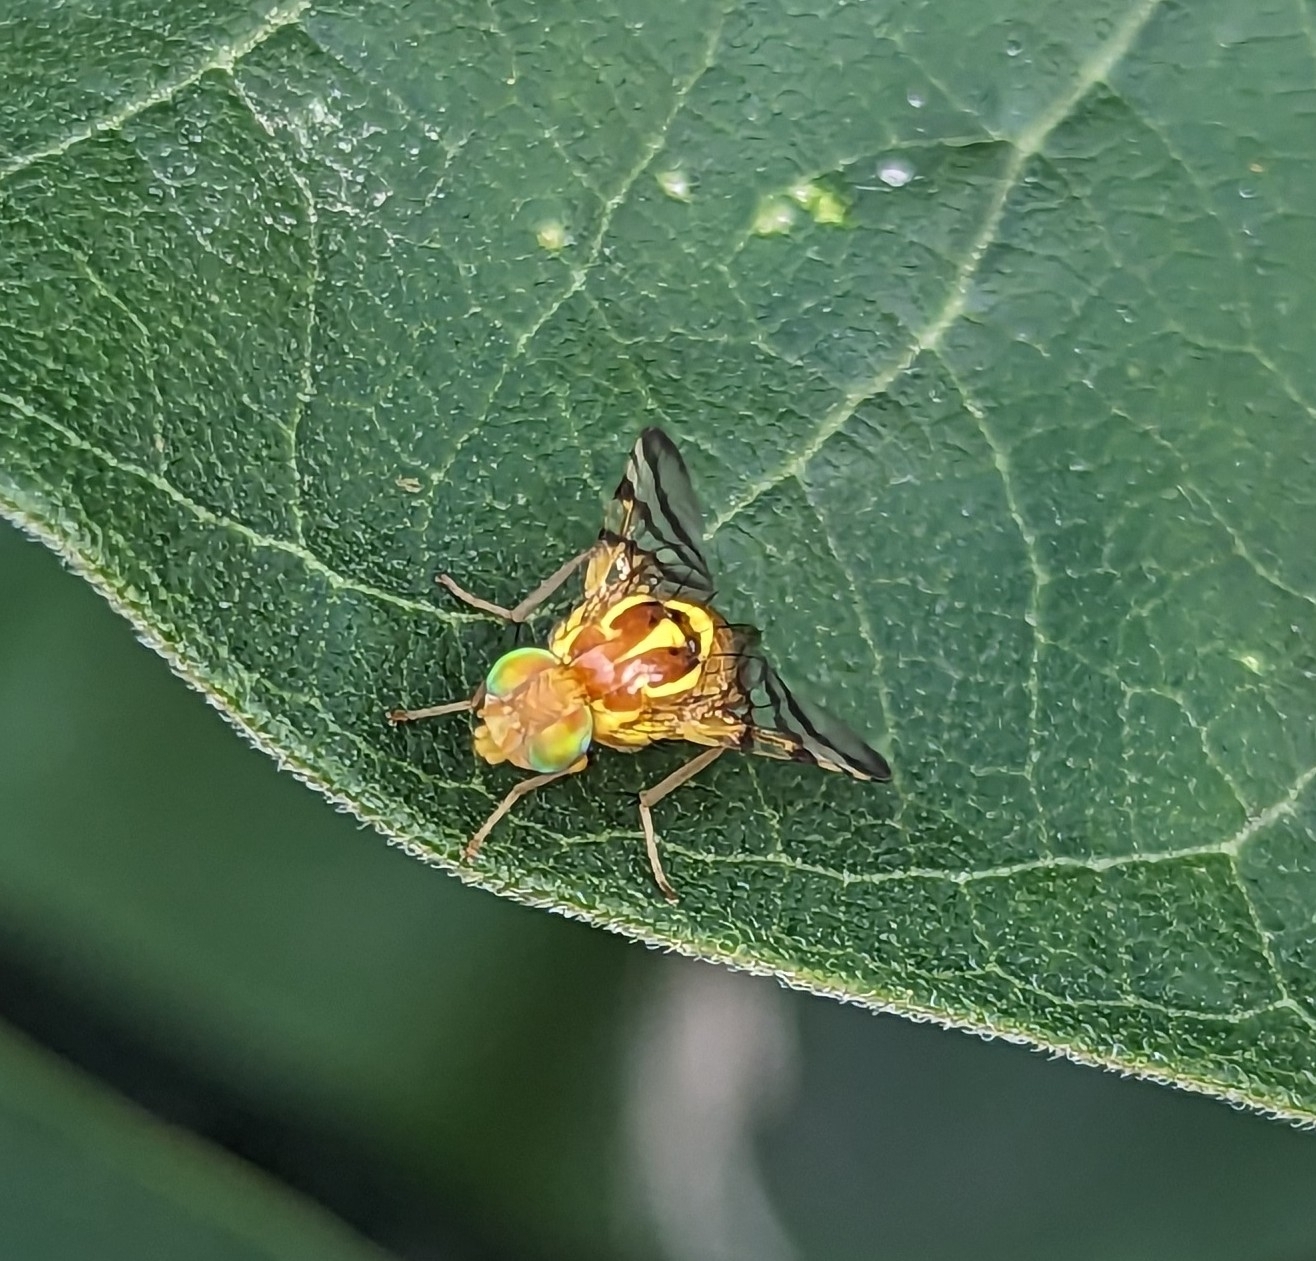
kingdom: Animalia
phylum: Arthropoda
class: Insecta
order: Diptera
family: Tephritidae
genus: Zonosemata
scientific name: Zonosemata electa
